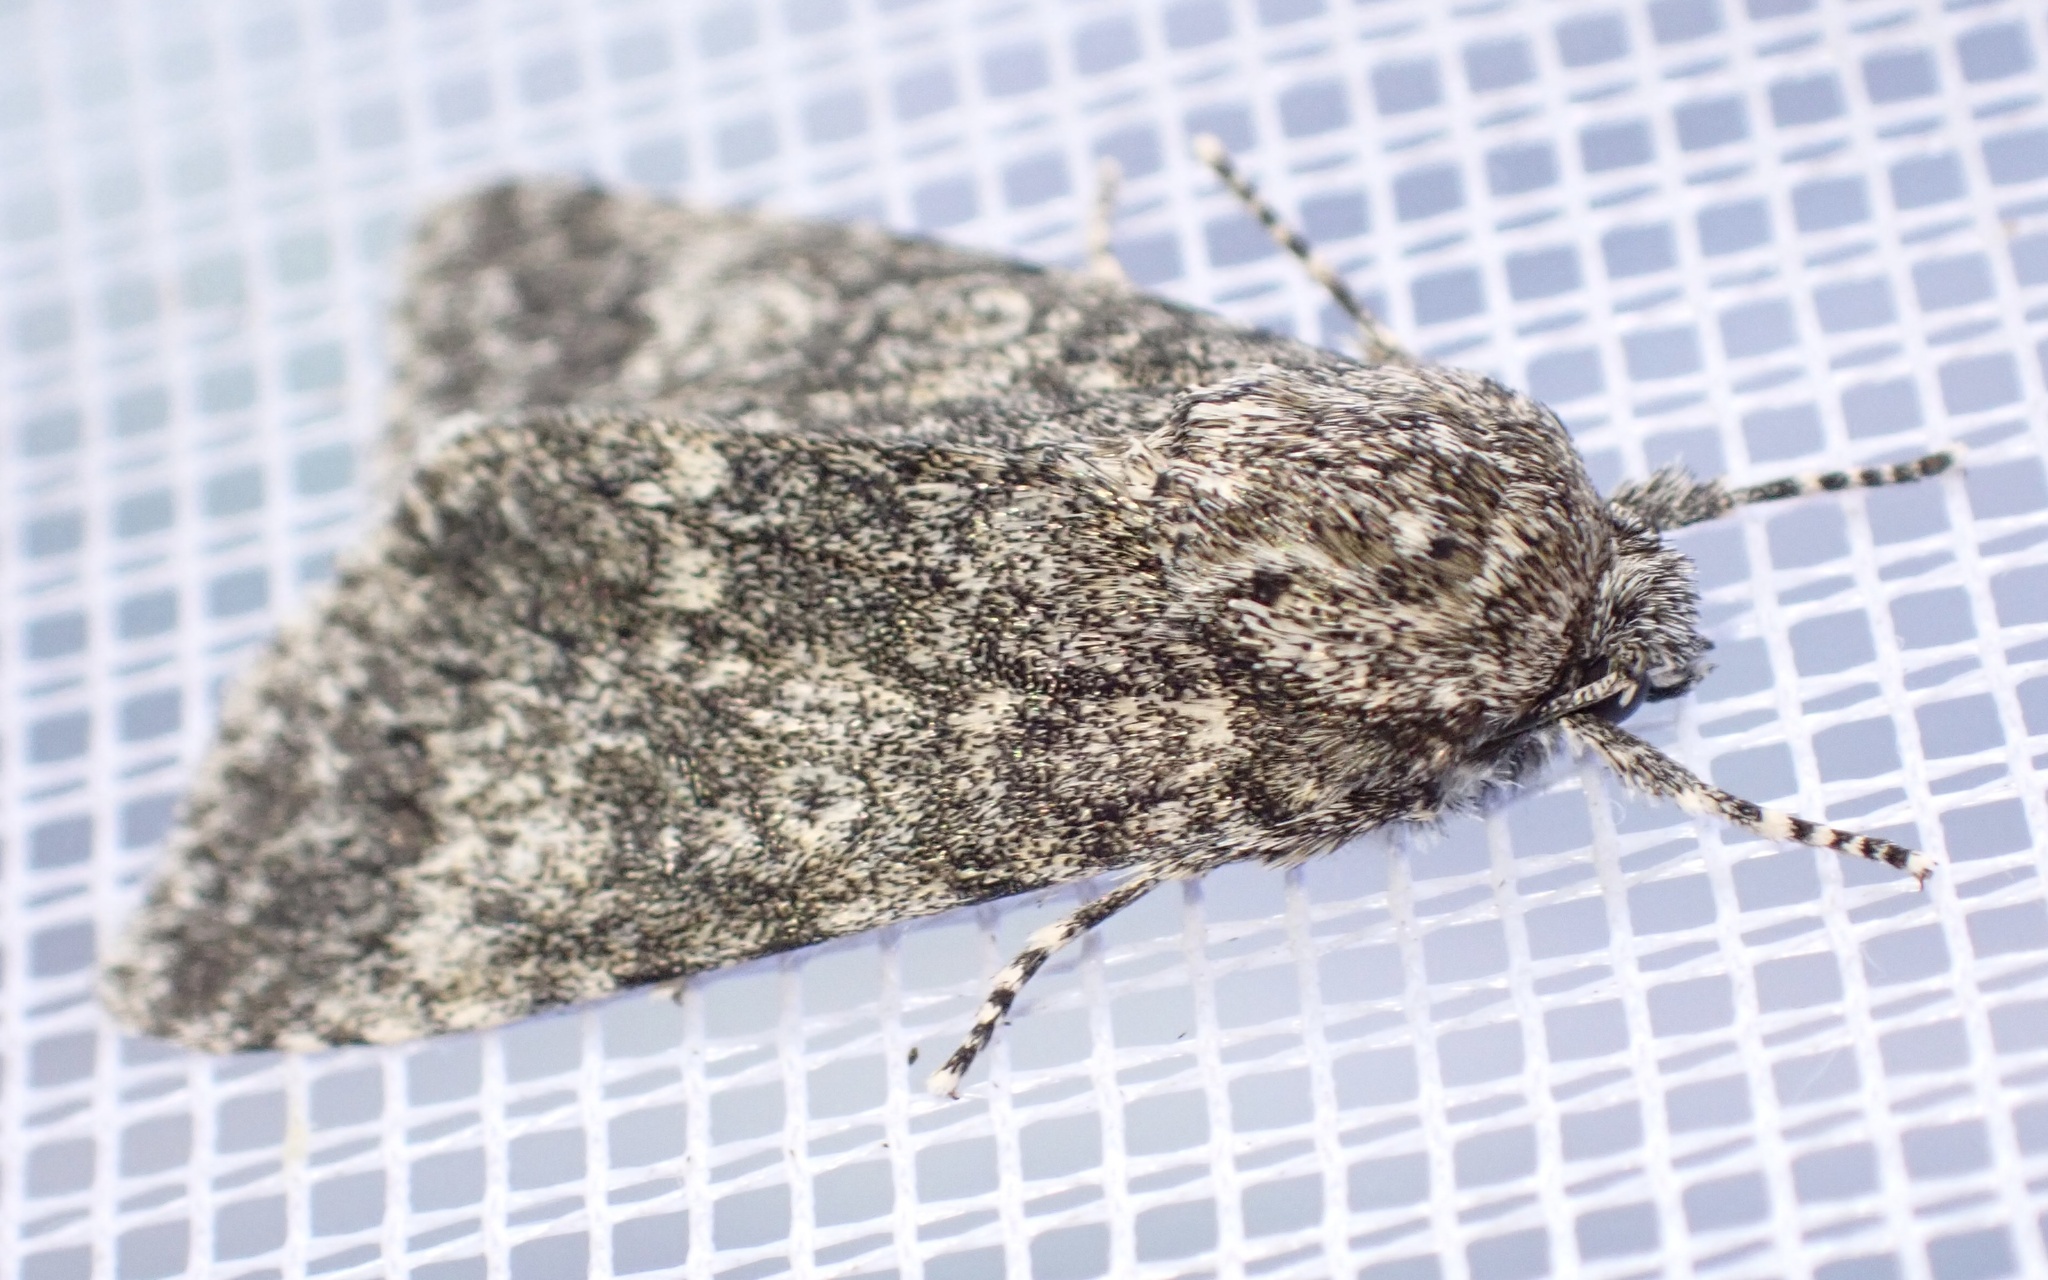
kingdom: Animalia
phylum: Arthropoda
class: Insecta
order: Lepidoptera
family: Noctuidae
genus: Acronicta
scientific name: Acronicta megacephala
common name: Poplar grey
